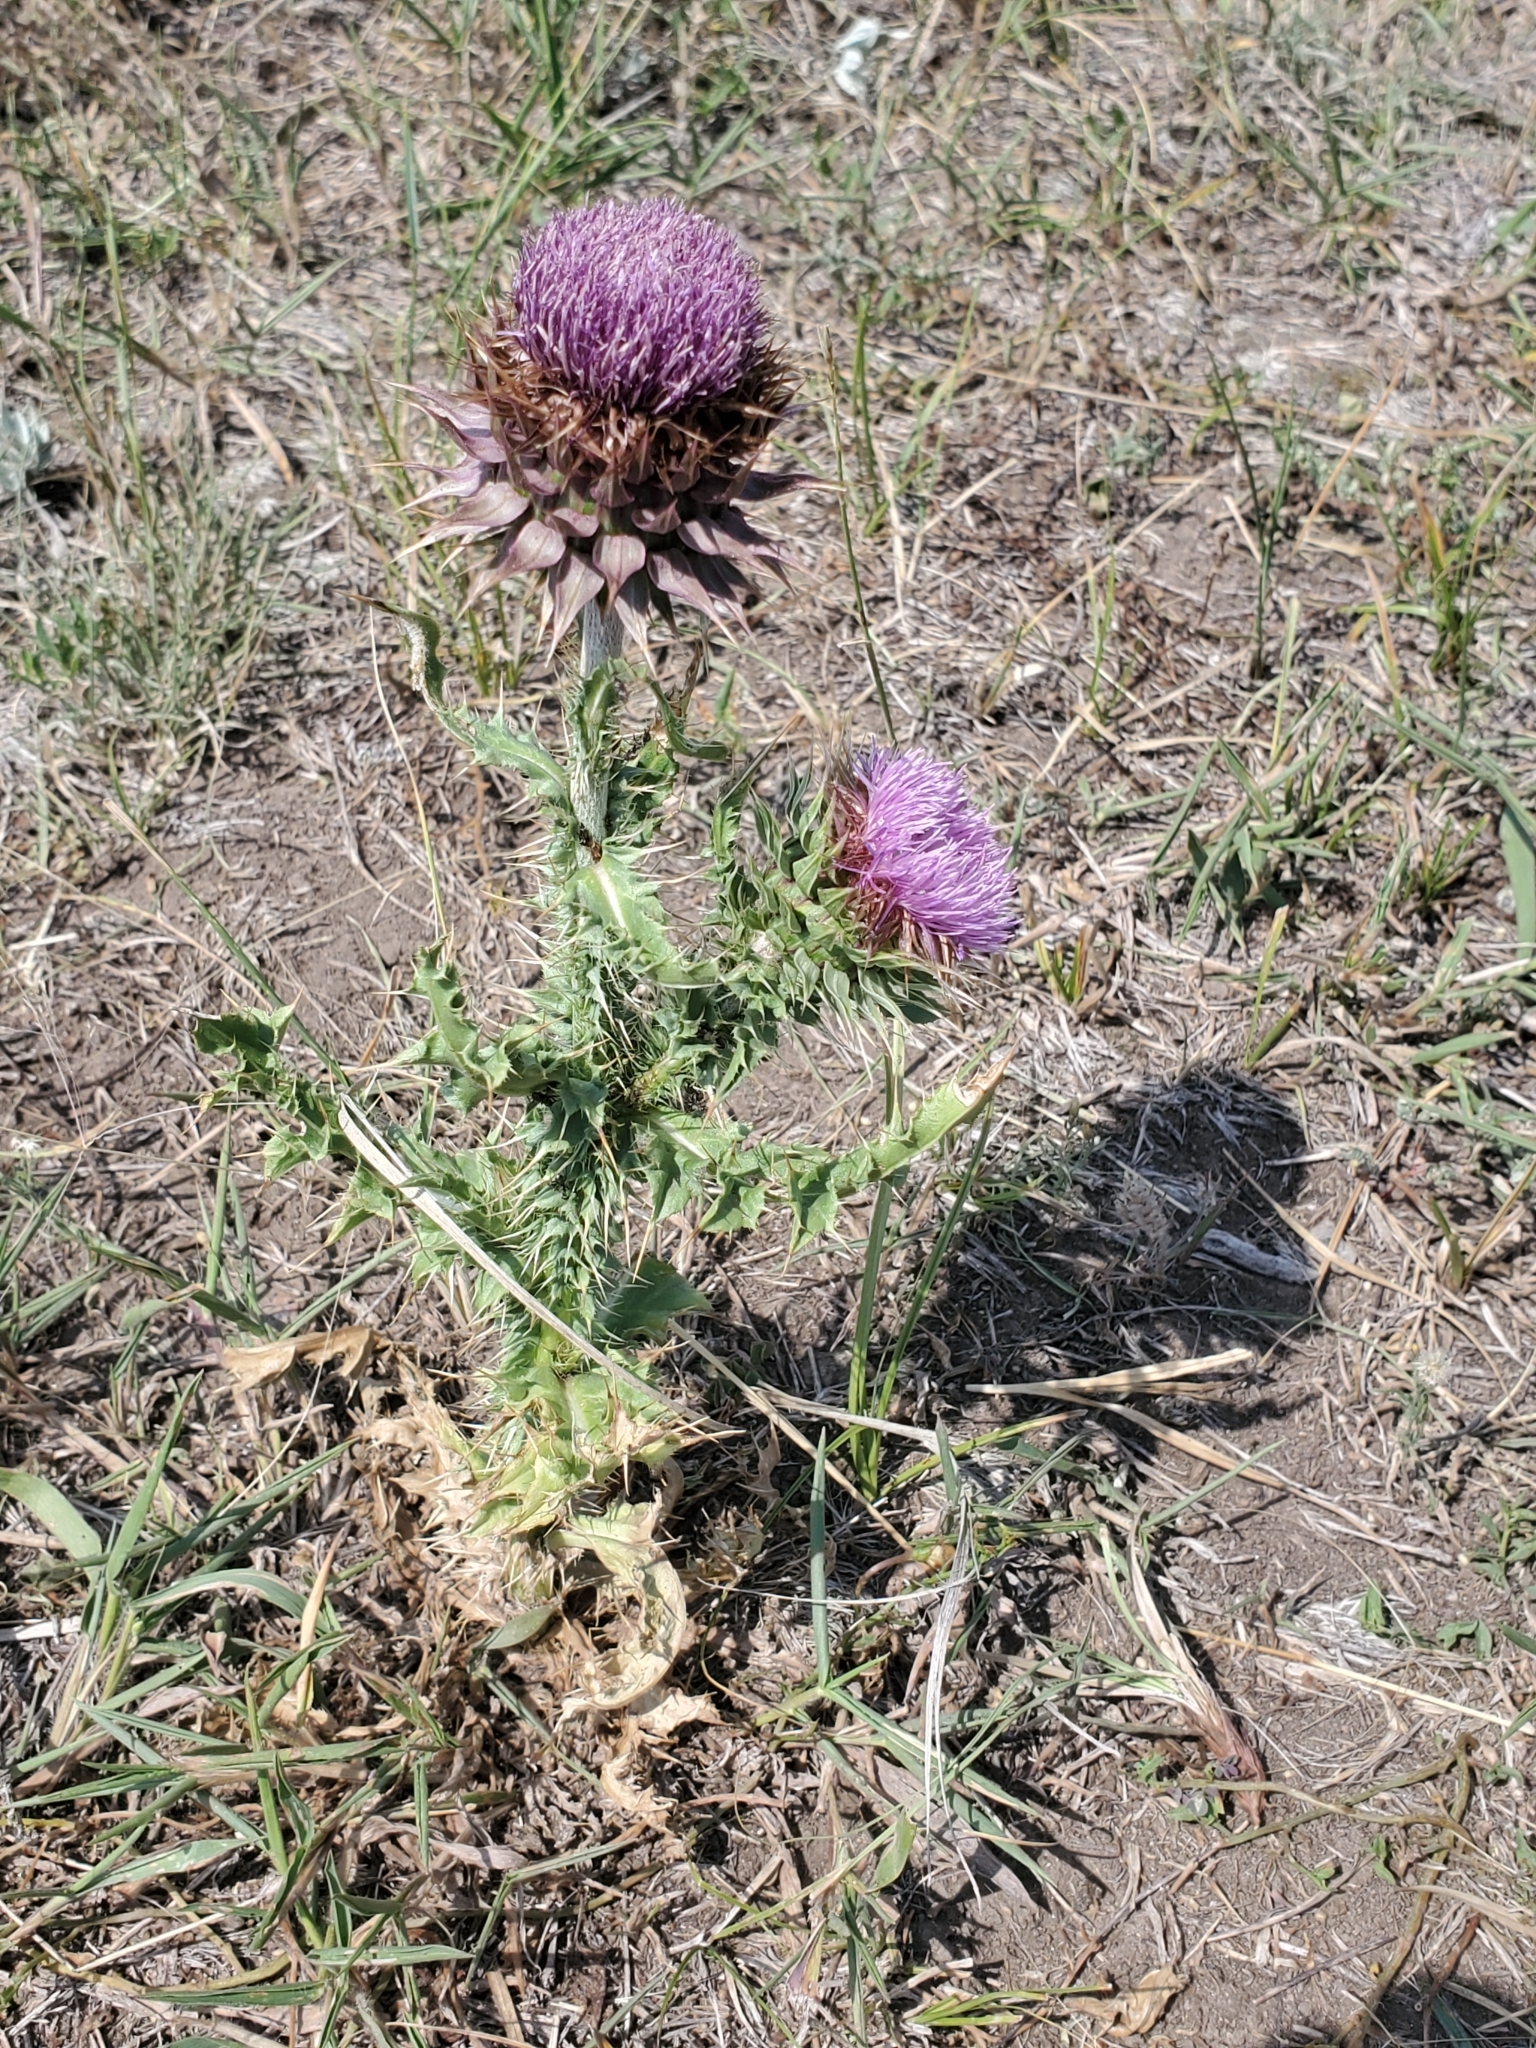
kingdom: Plantae
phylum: Tracheophyta
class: Magnoliopsida
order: Asterales
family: Asteraceae
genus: Carduus
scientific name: Carduus nutans
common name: Musk thistle
